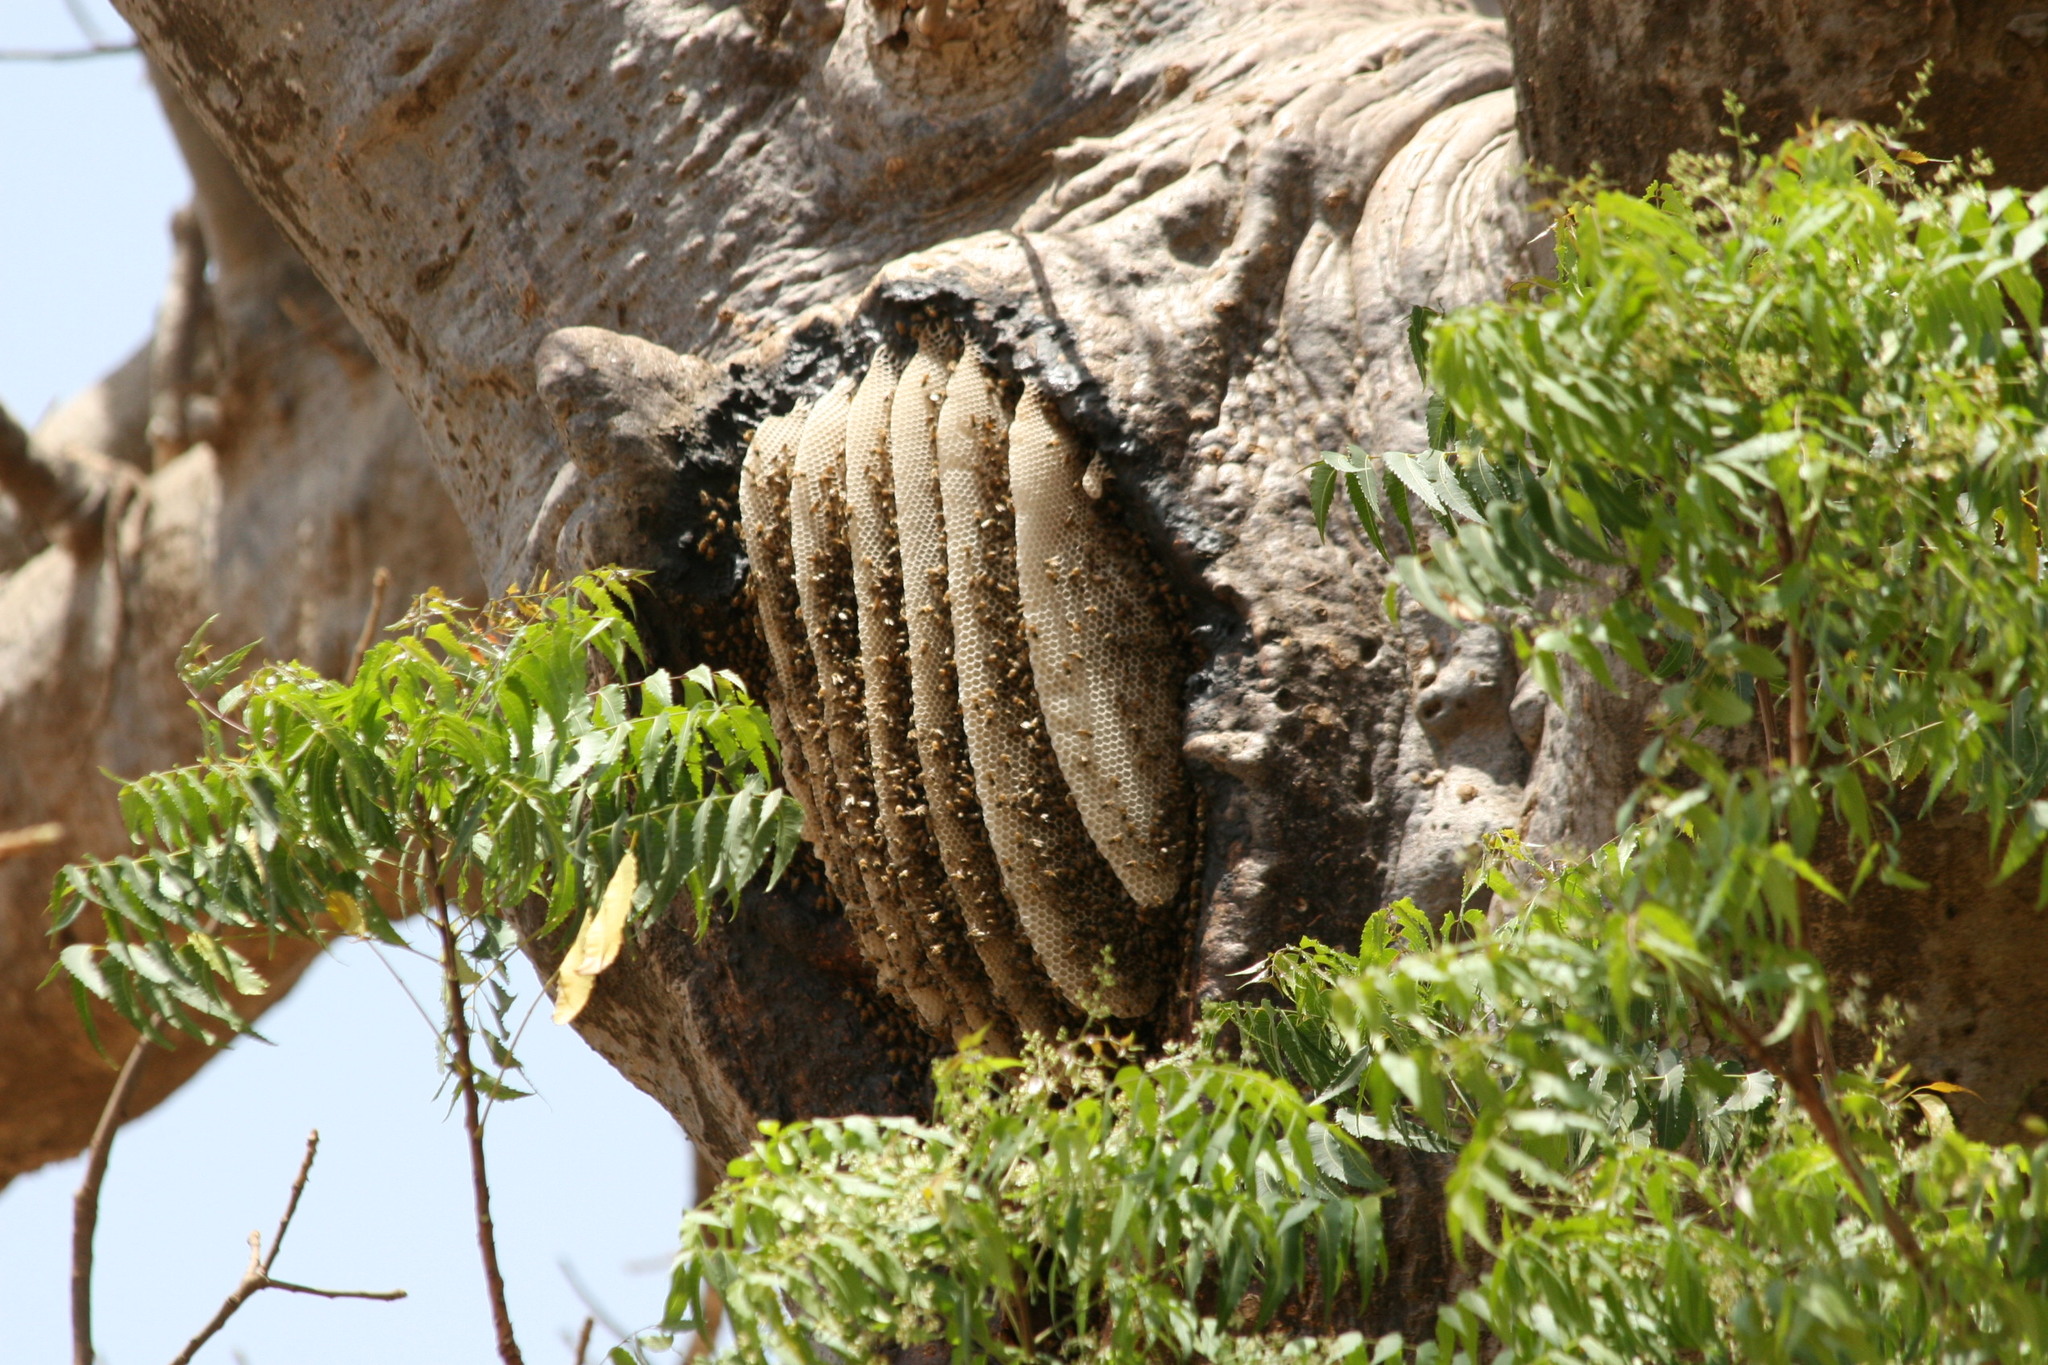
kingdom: Animalia
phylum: Arthropoda
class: Insecta
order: Hymenoptera
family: Apidae
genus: Apis
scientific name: Apis mellifera
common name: Honey bee
